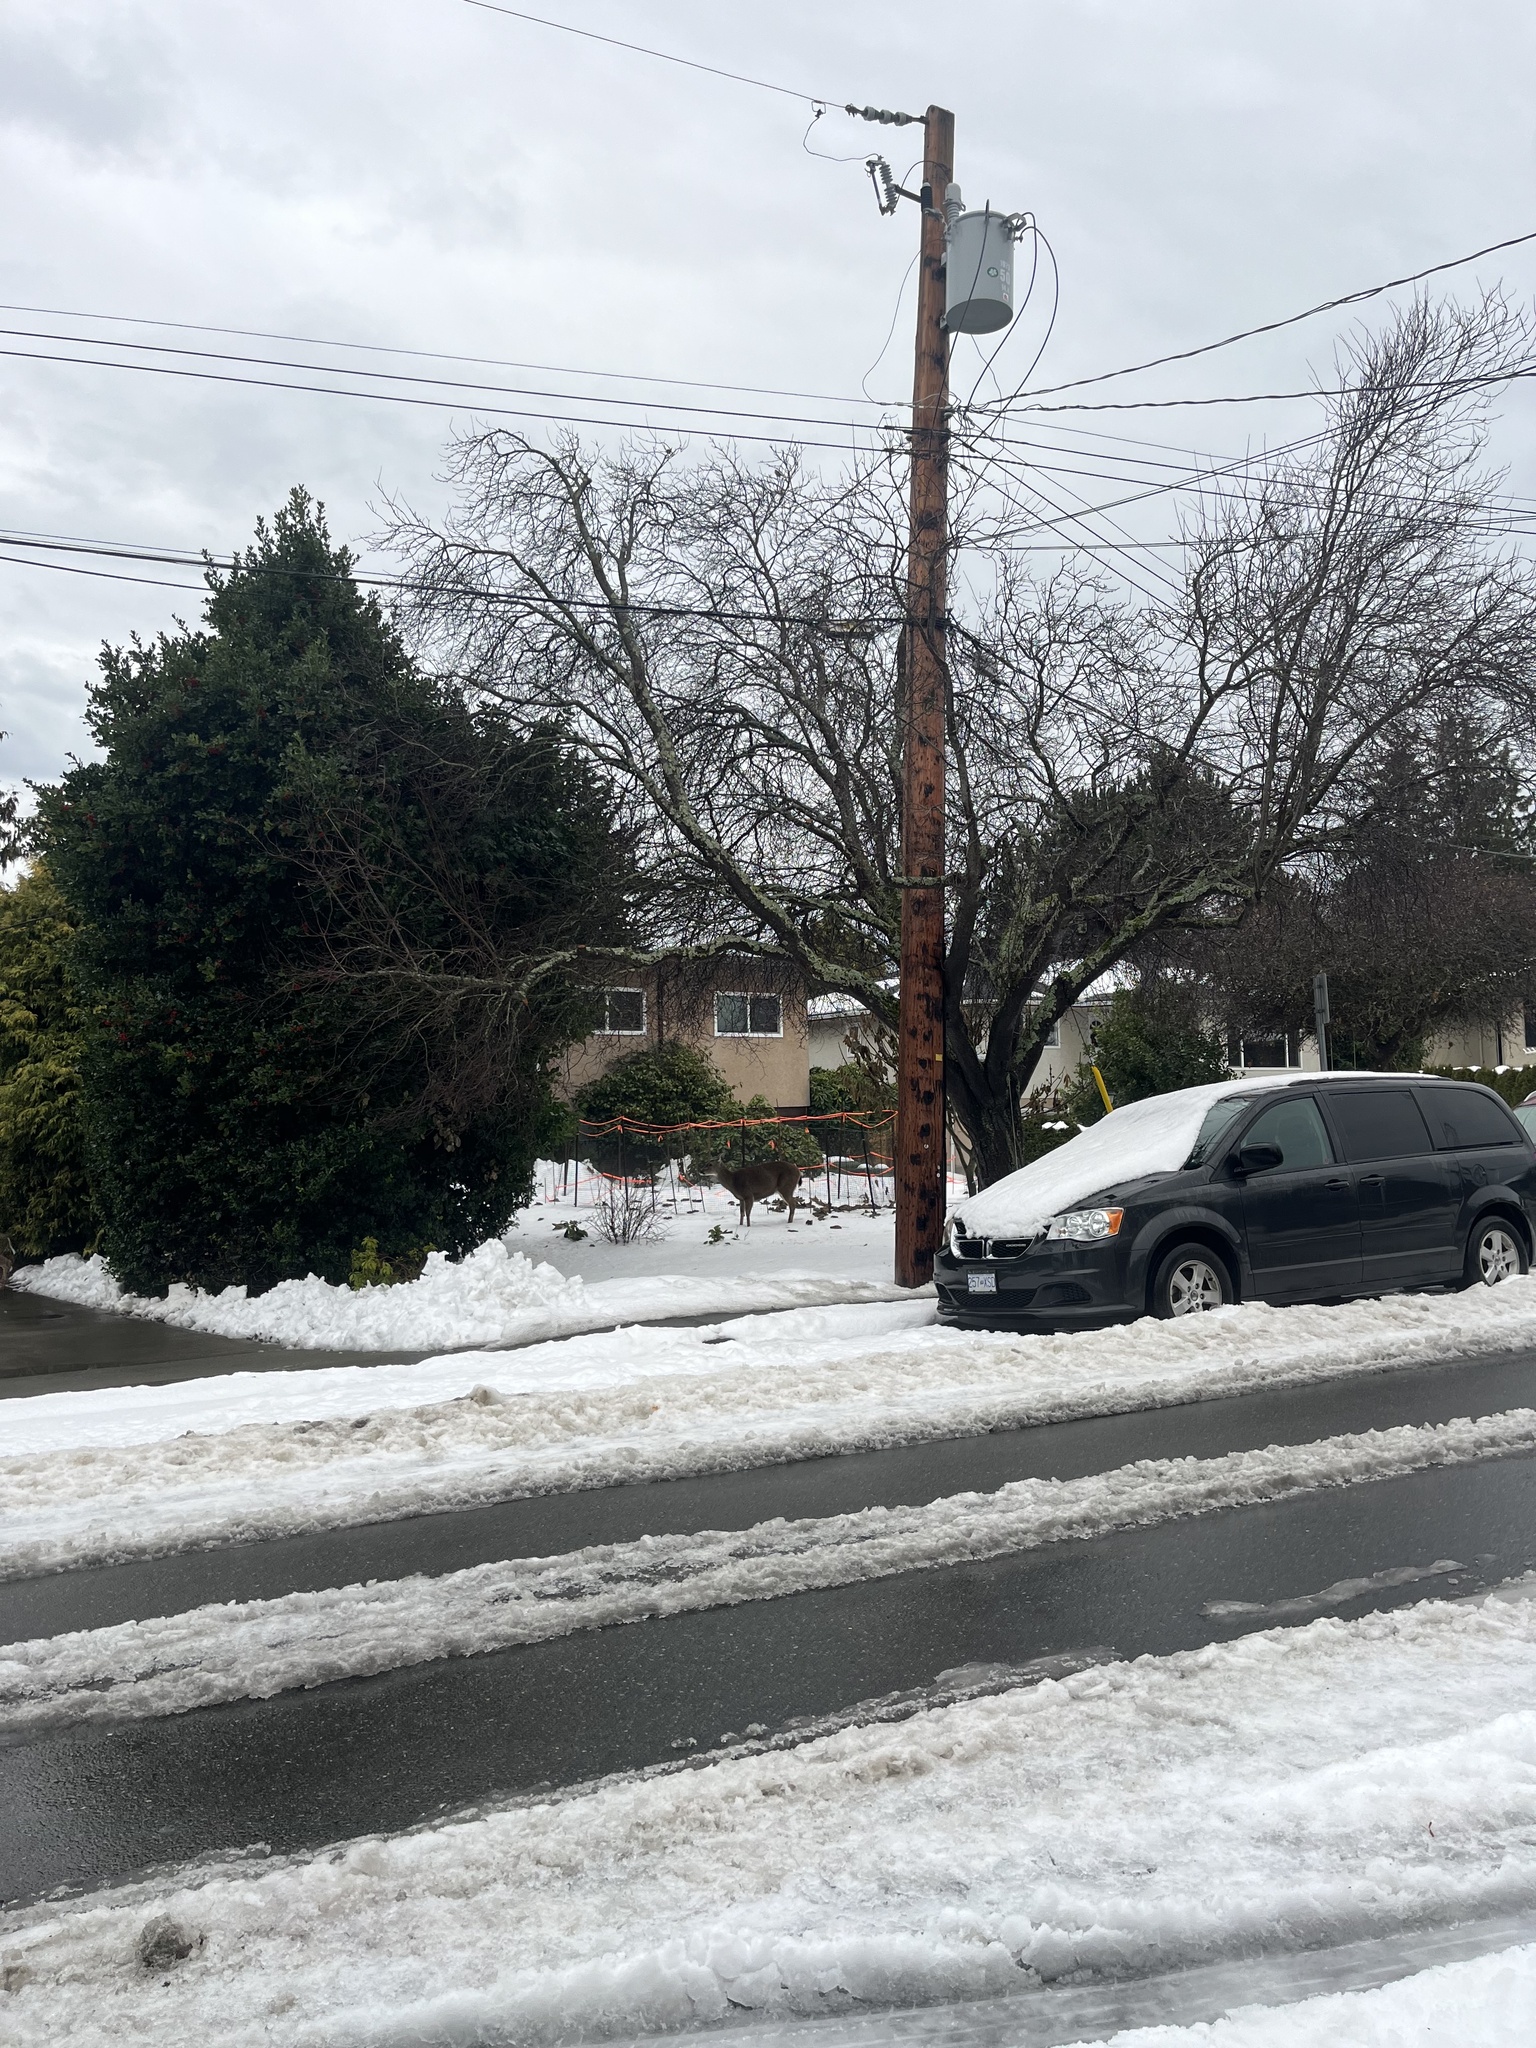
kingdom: Animalia
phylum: Chordata
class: Mammalia
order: Artiodactyla
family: Cervidae
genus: Odocoileus
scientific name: Odocoileus hemionus
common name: Mule deer
